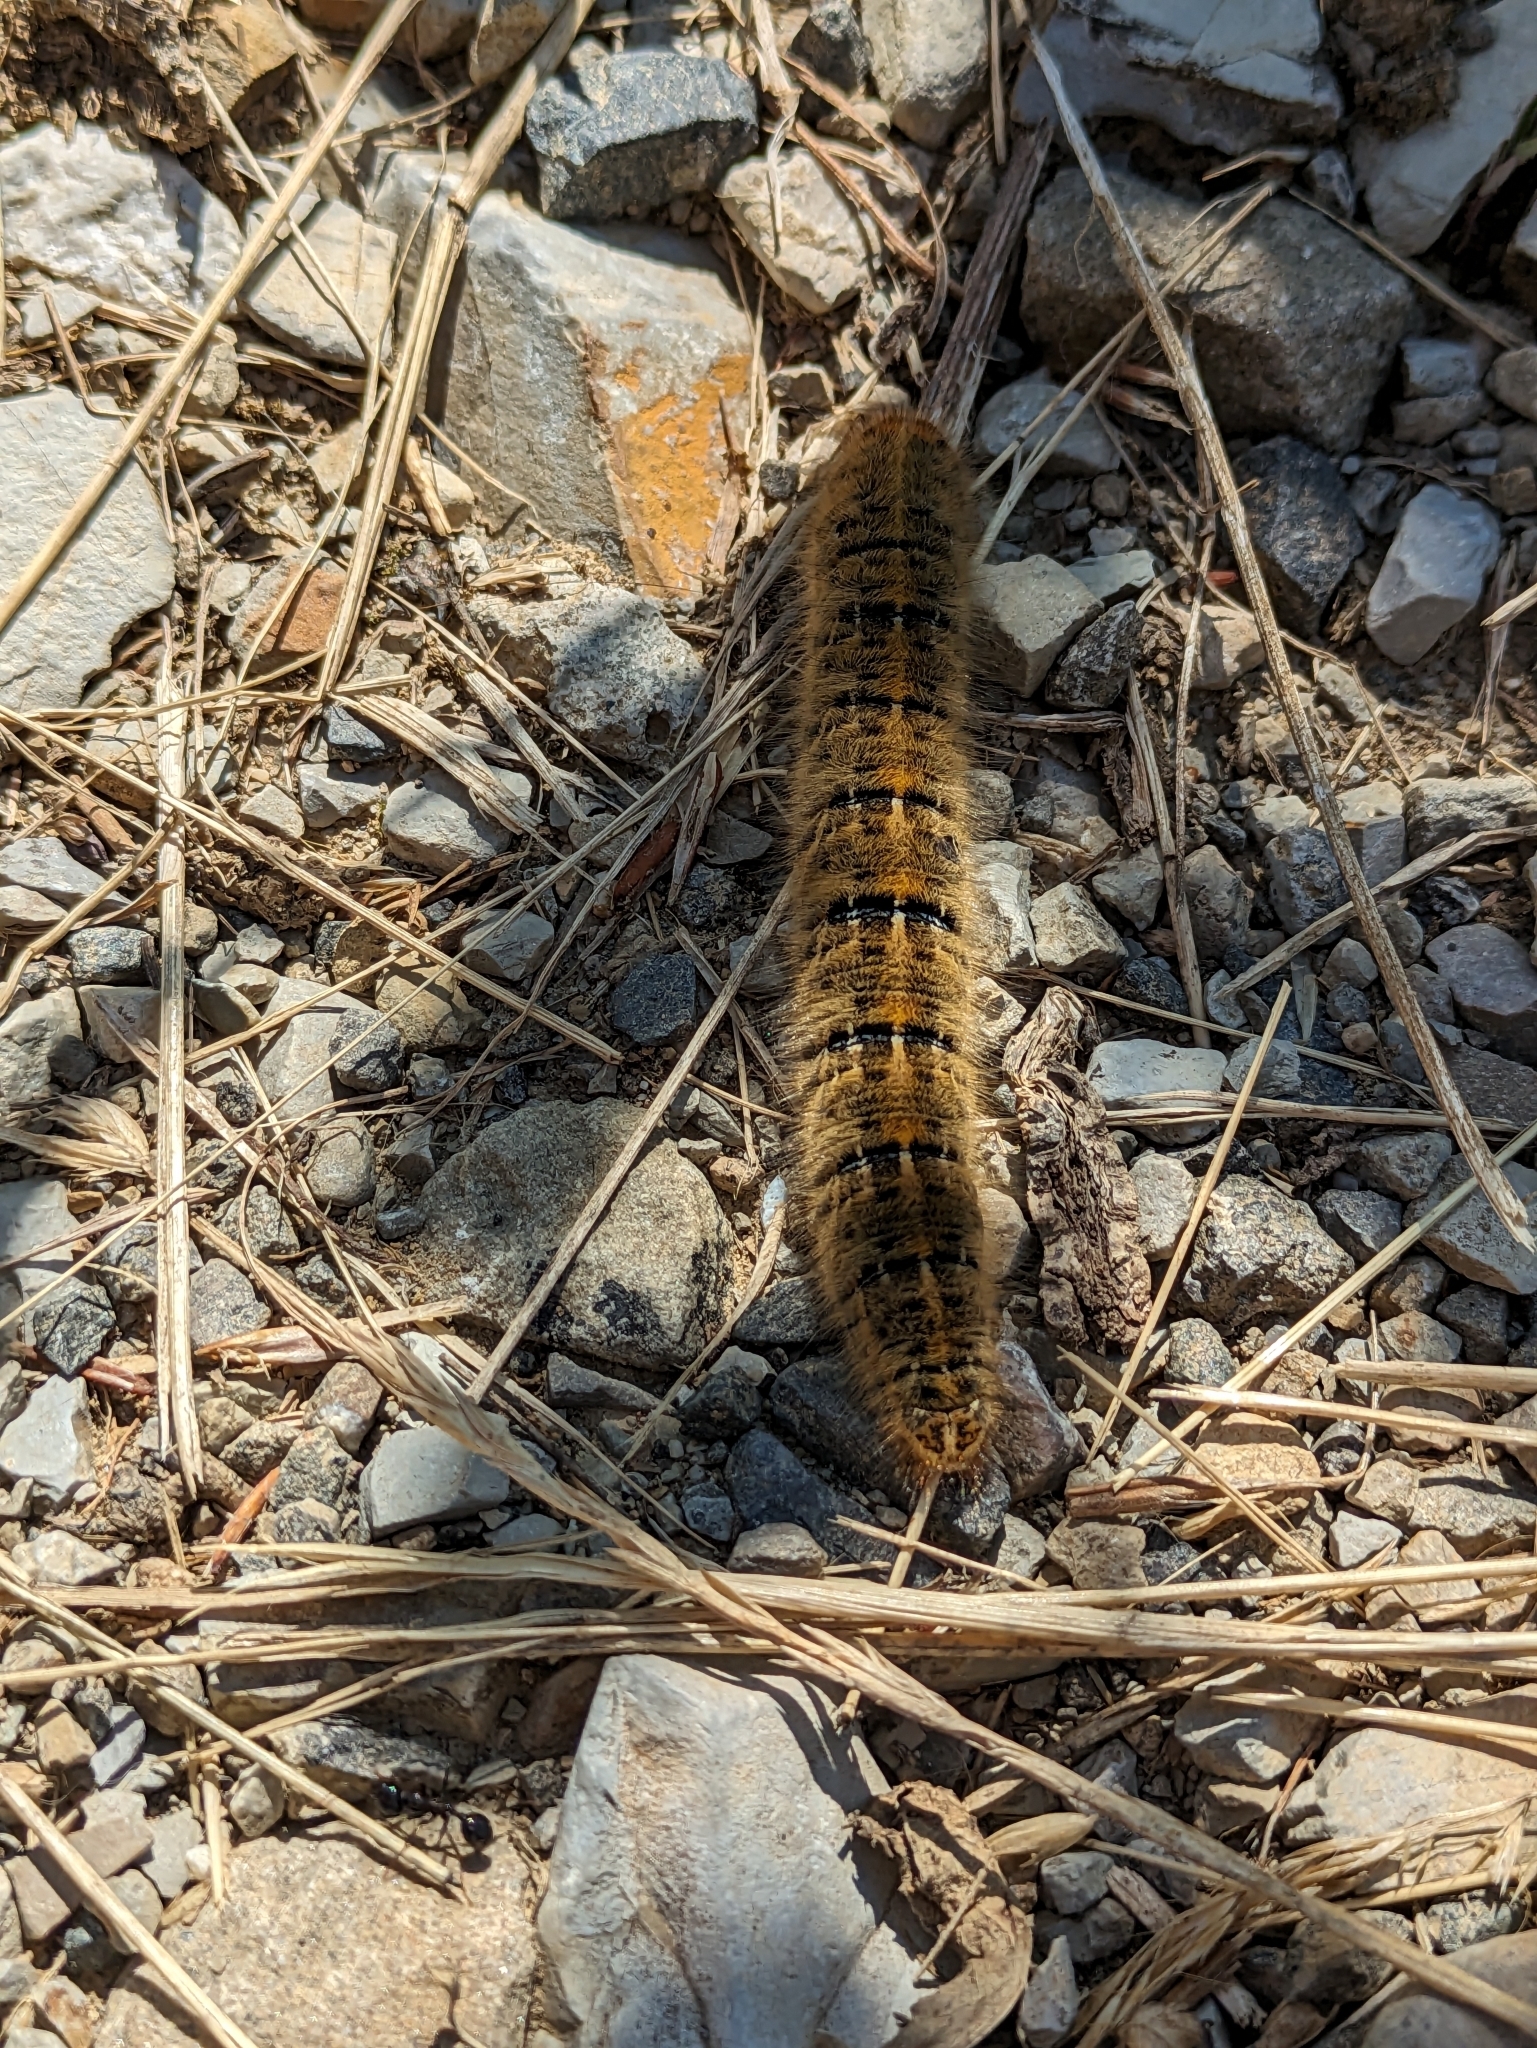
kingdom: Animalia
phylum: Arthropoda
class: Insecta
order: Lepidoptera
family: Lasiocampidae
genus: Lasiocampa
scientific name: Lasiocampa trifolii
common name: Grass eggar
